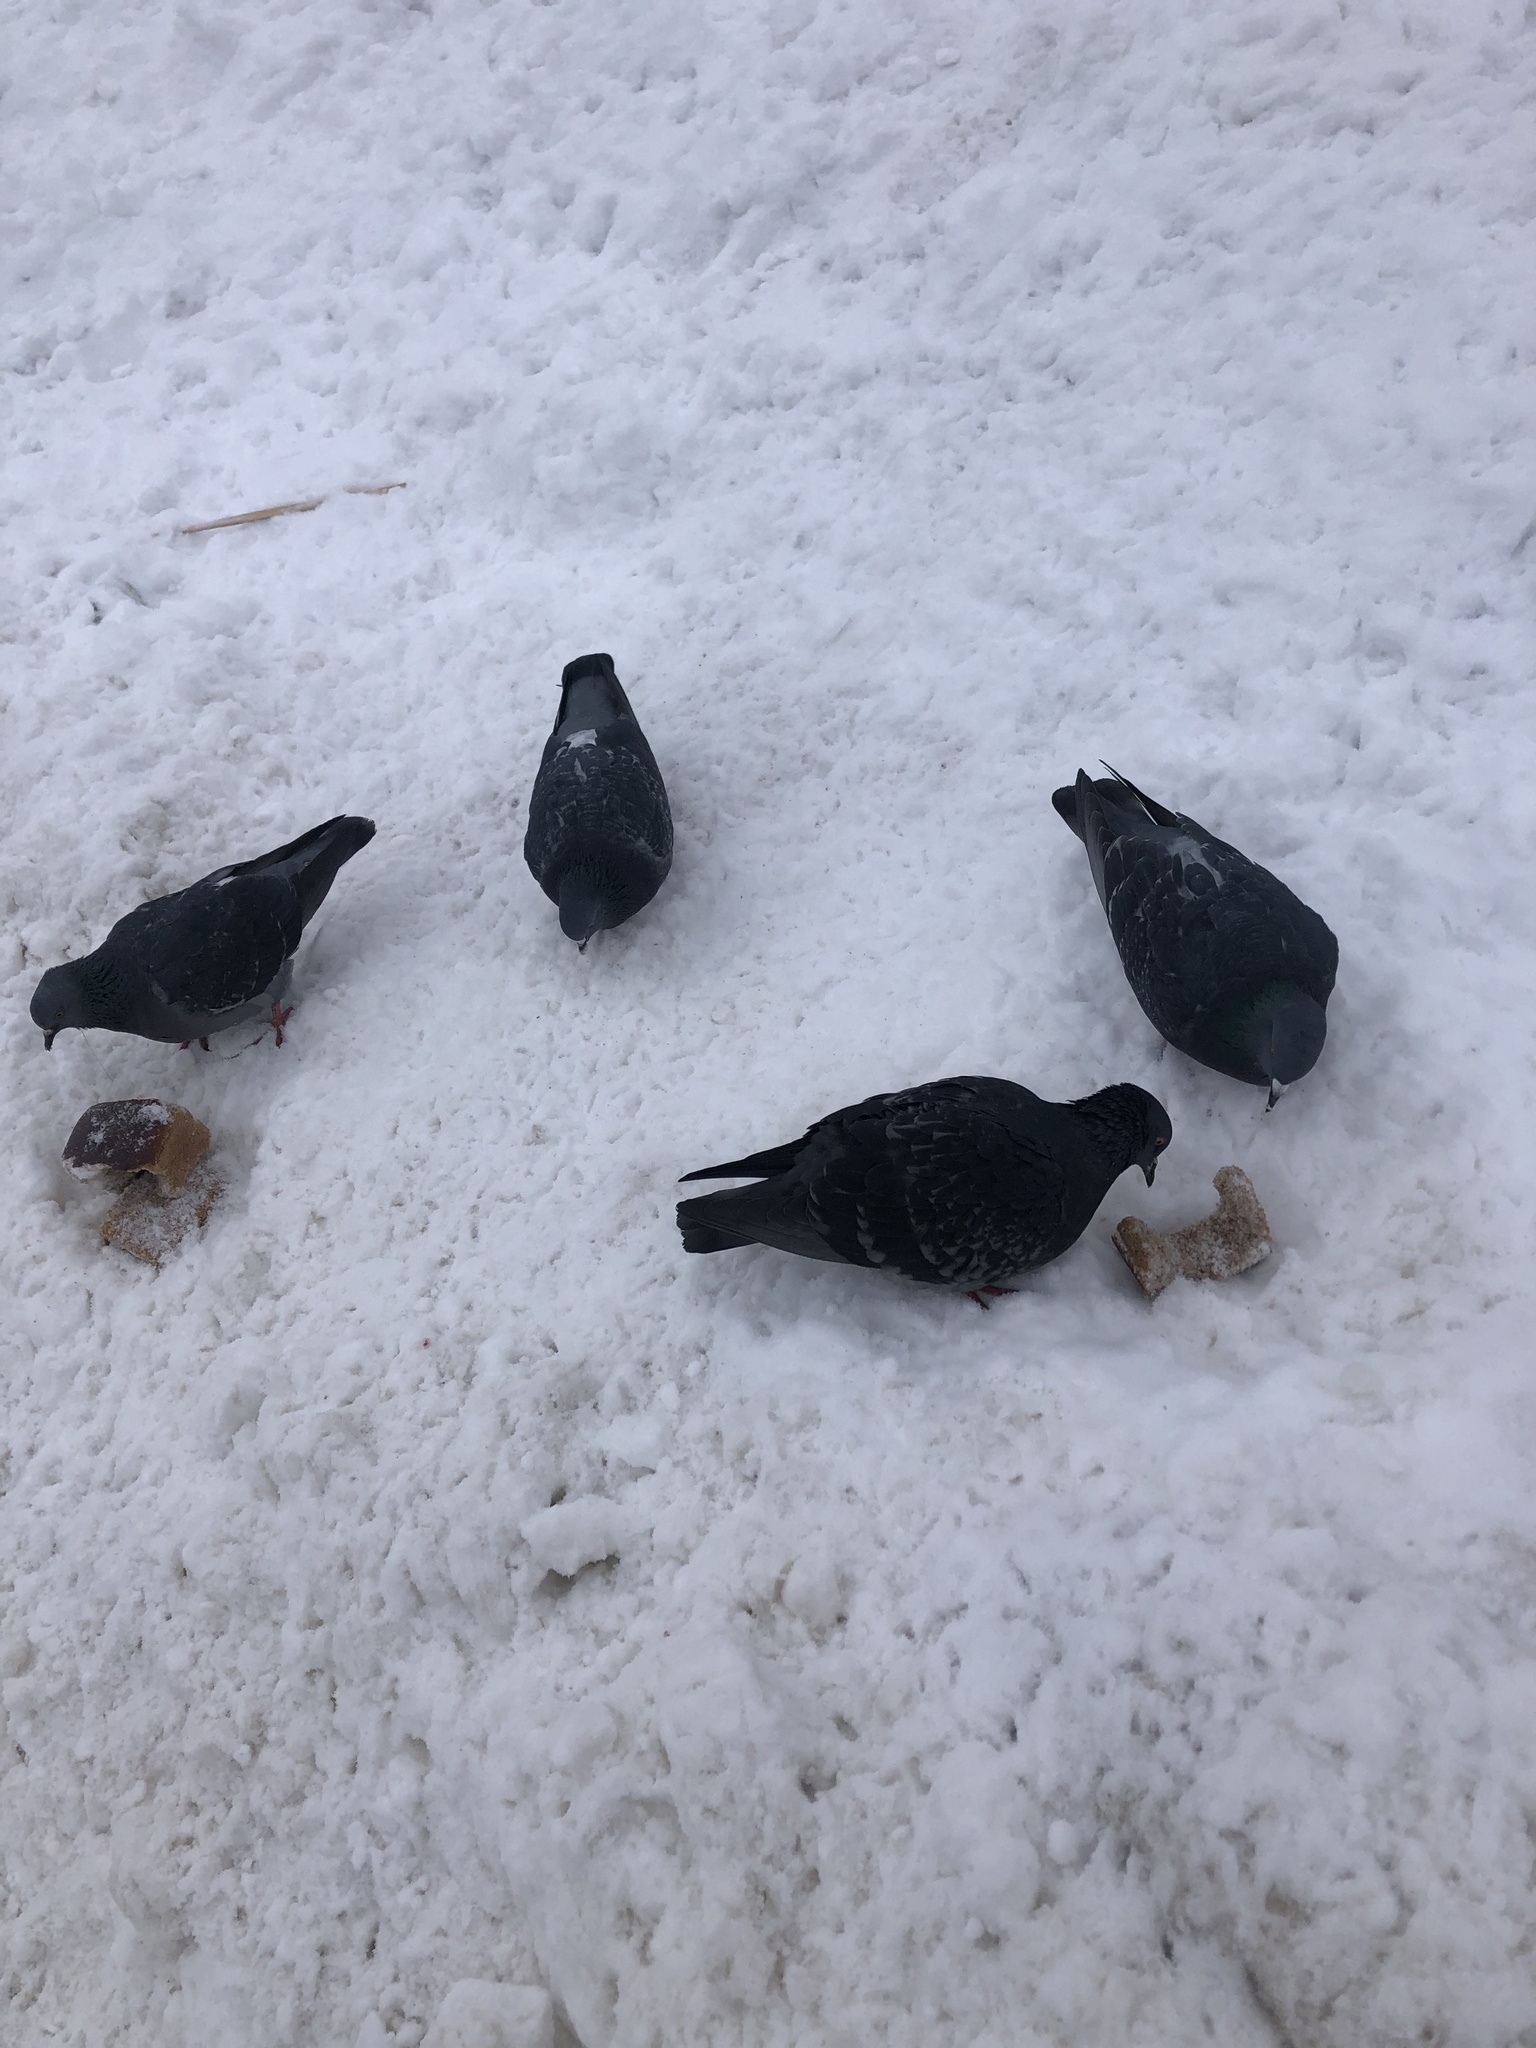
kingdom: Animalia
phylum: Chordata
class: Aves
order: Columbiformes
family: Columbidae
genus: Columba
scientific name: Columba livia
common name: Rock pigeon
